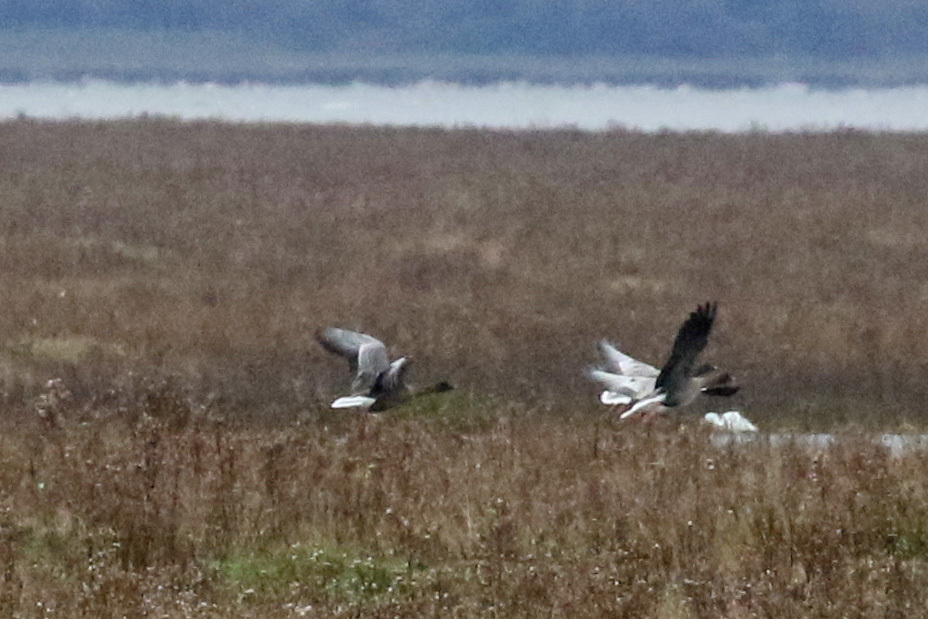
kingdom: Animalia
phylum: Chordata
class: Aves
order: Anseriformes
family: Anatidae
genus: Anser
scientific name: Anser brachyrhynchus
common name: Pink-footed goose
